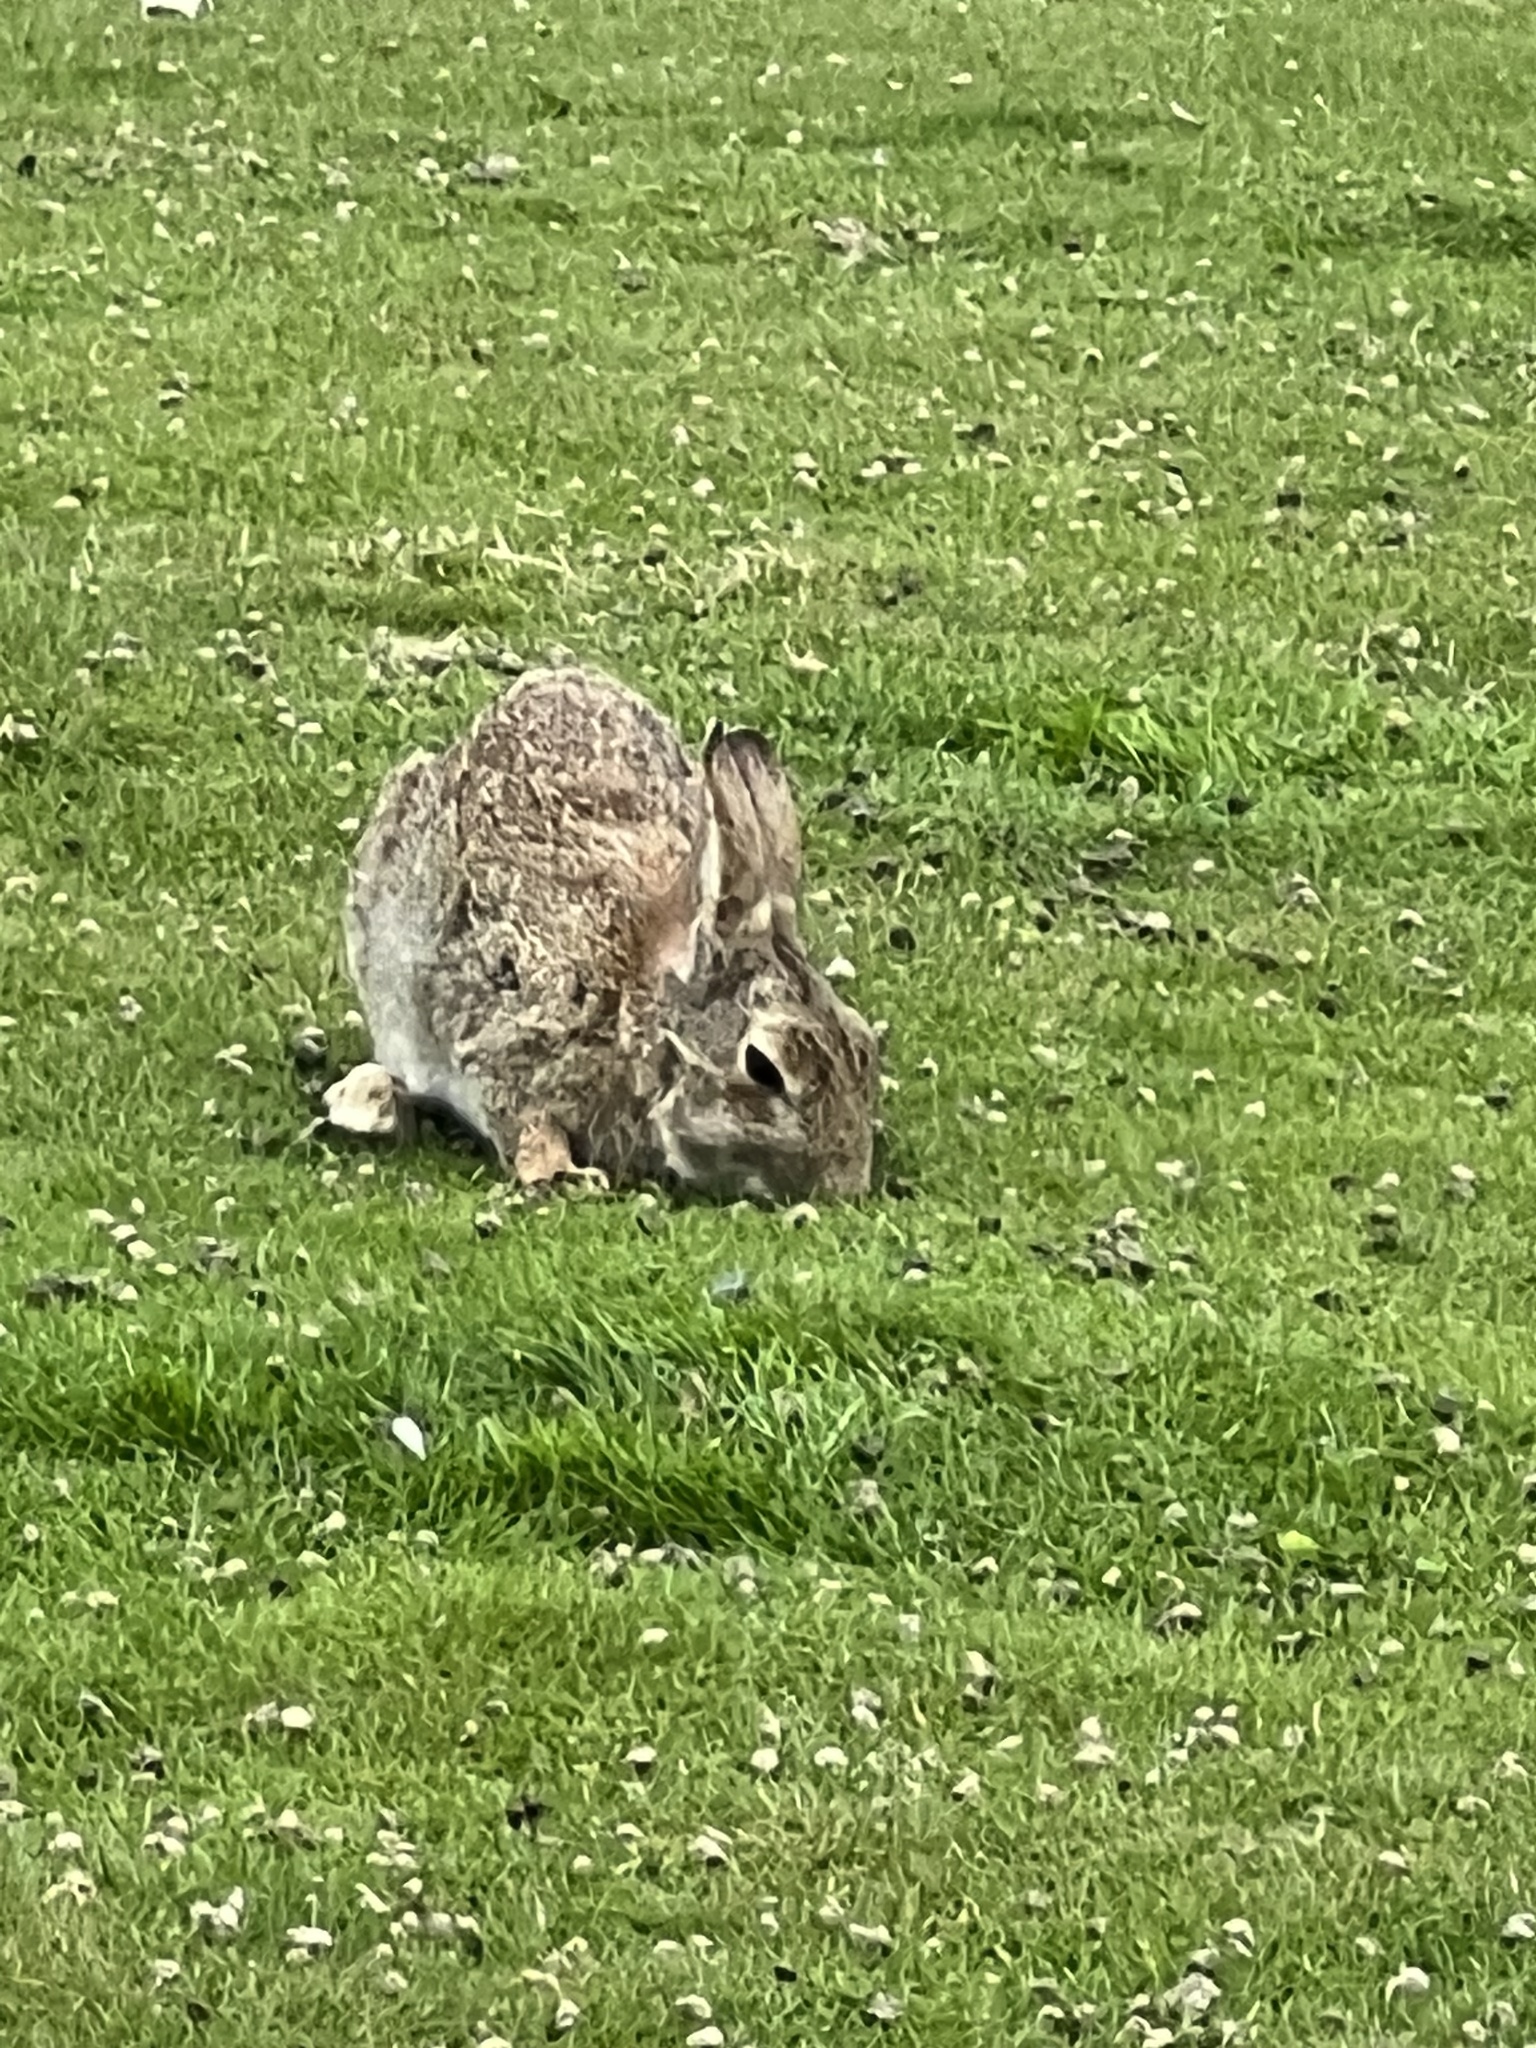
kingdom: Animalia
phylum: Chordata
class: Mammalia
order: Lagomorpha
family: Leporidae
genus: Oryctolagus
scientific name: Oryctolagus cuniculus
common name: European rabbit
